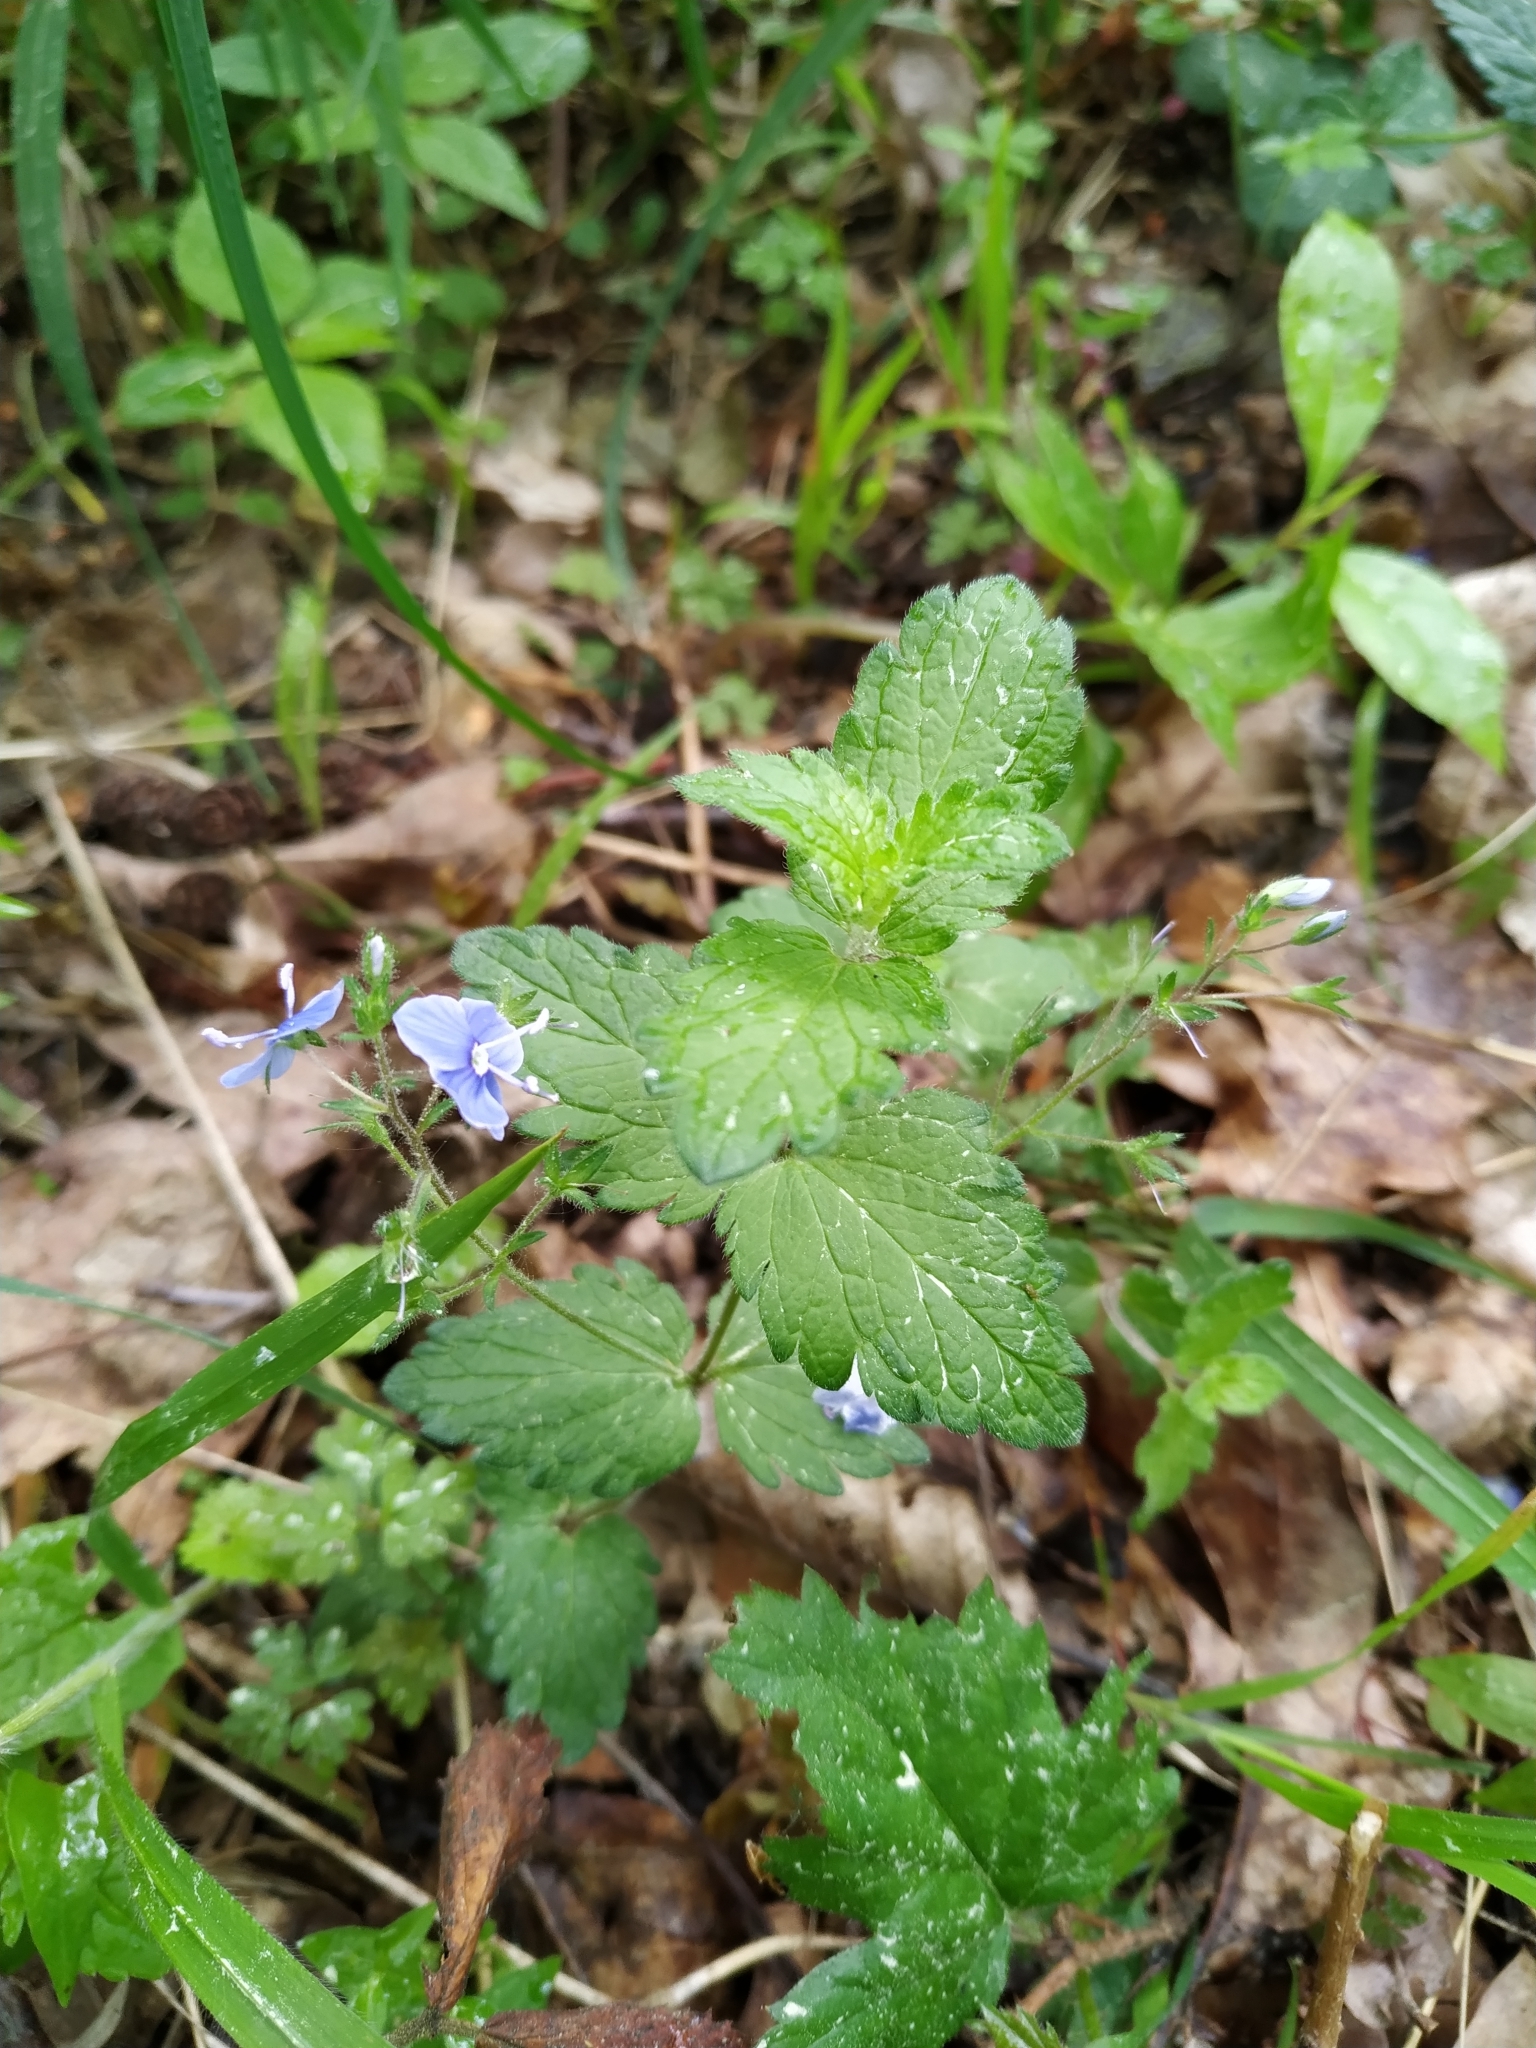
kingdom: Plantae
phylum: Tracheophyta
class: Magnoliopsida
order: Lamiales
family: Plantaginaceae
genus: Veronica
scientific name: Veronica chamaedrys
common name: Germander speedwell
